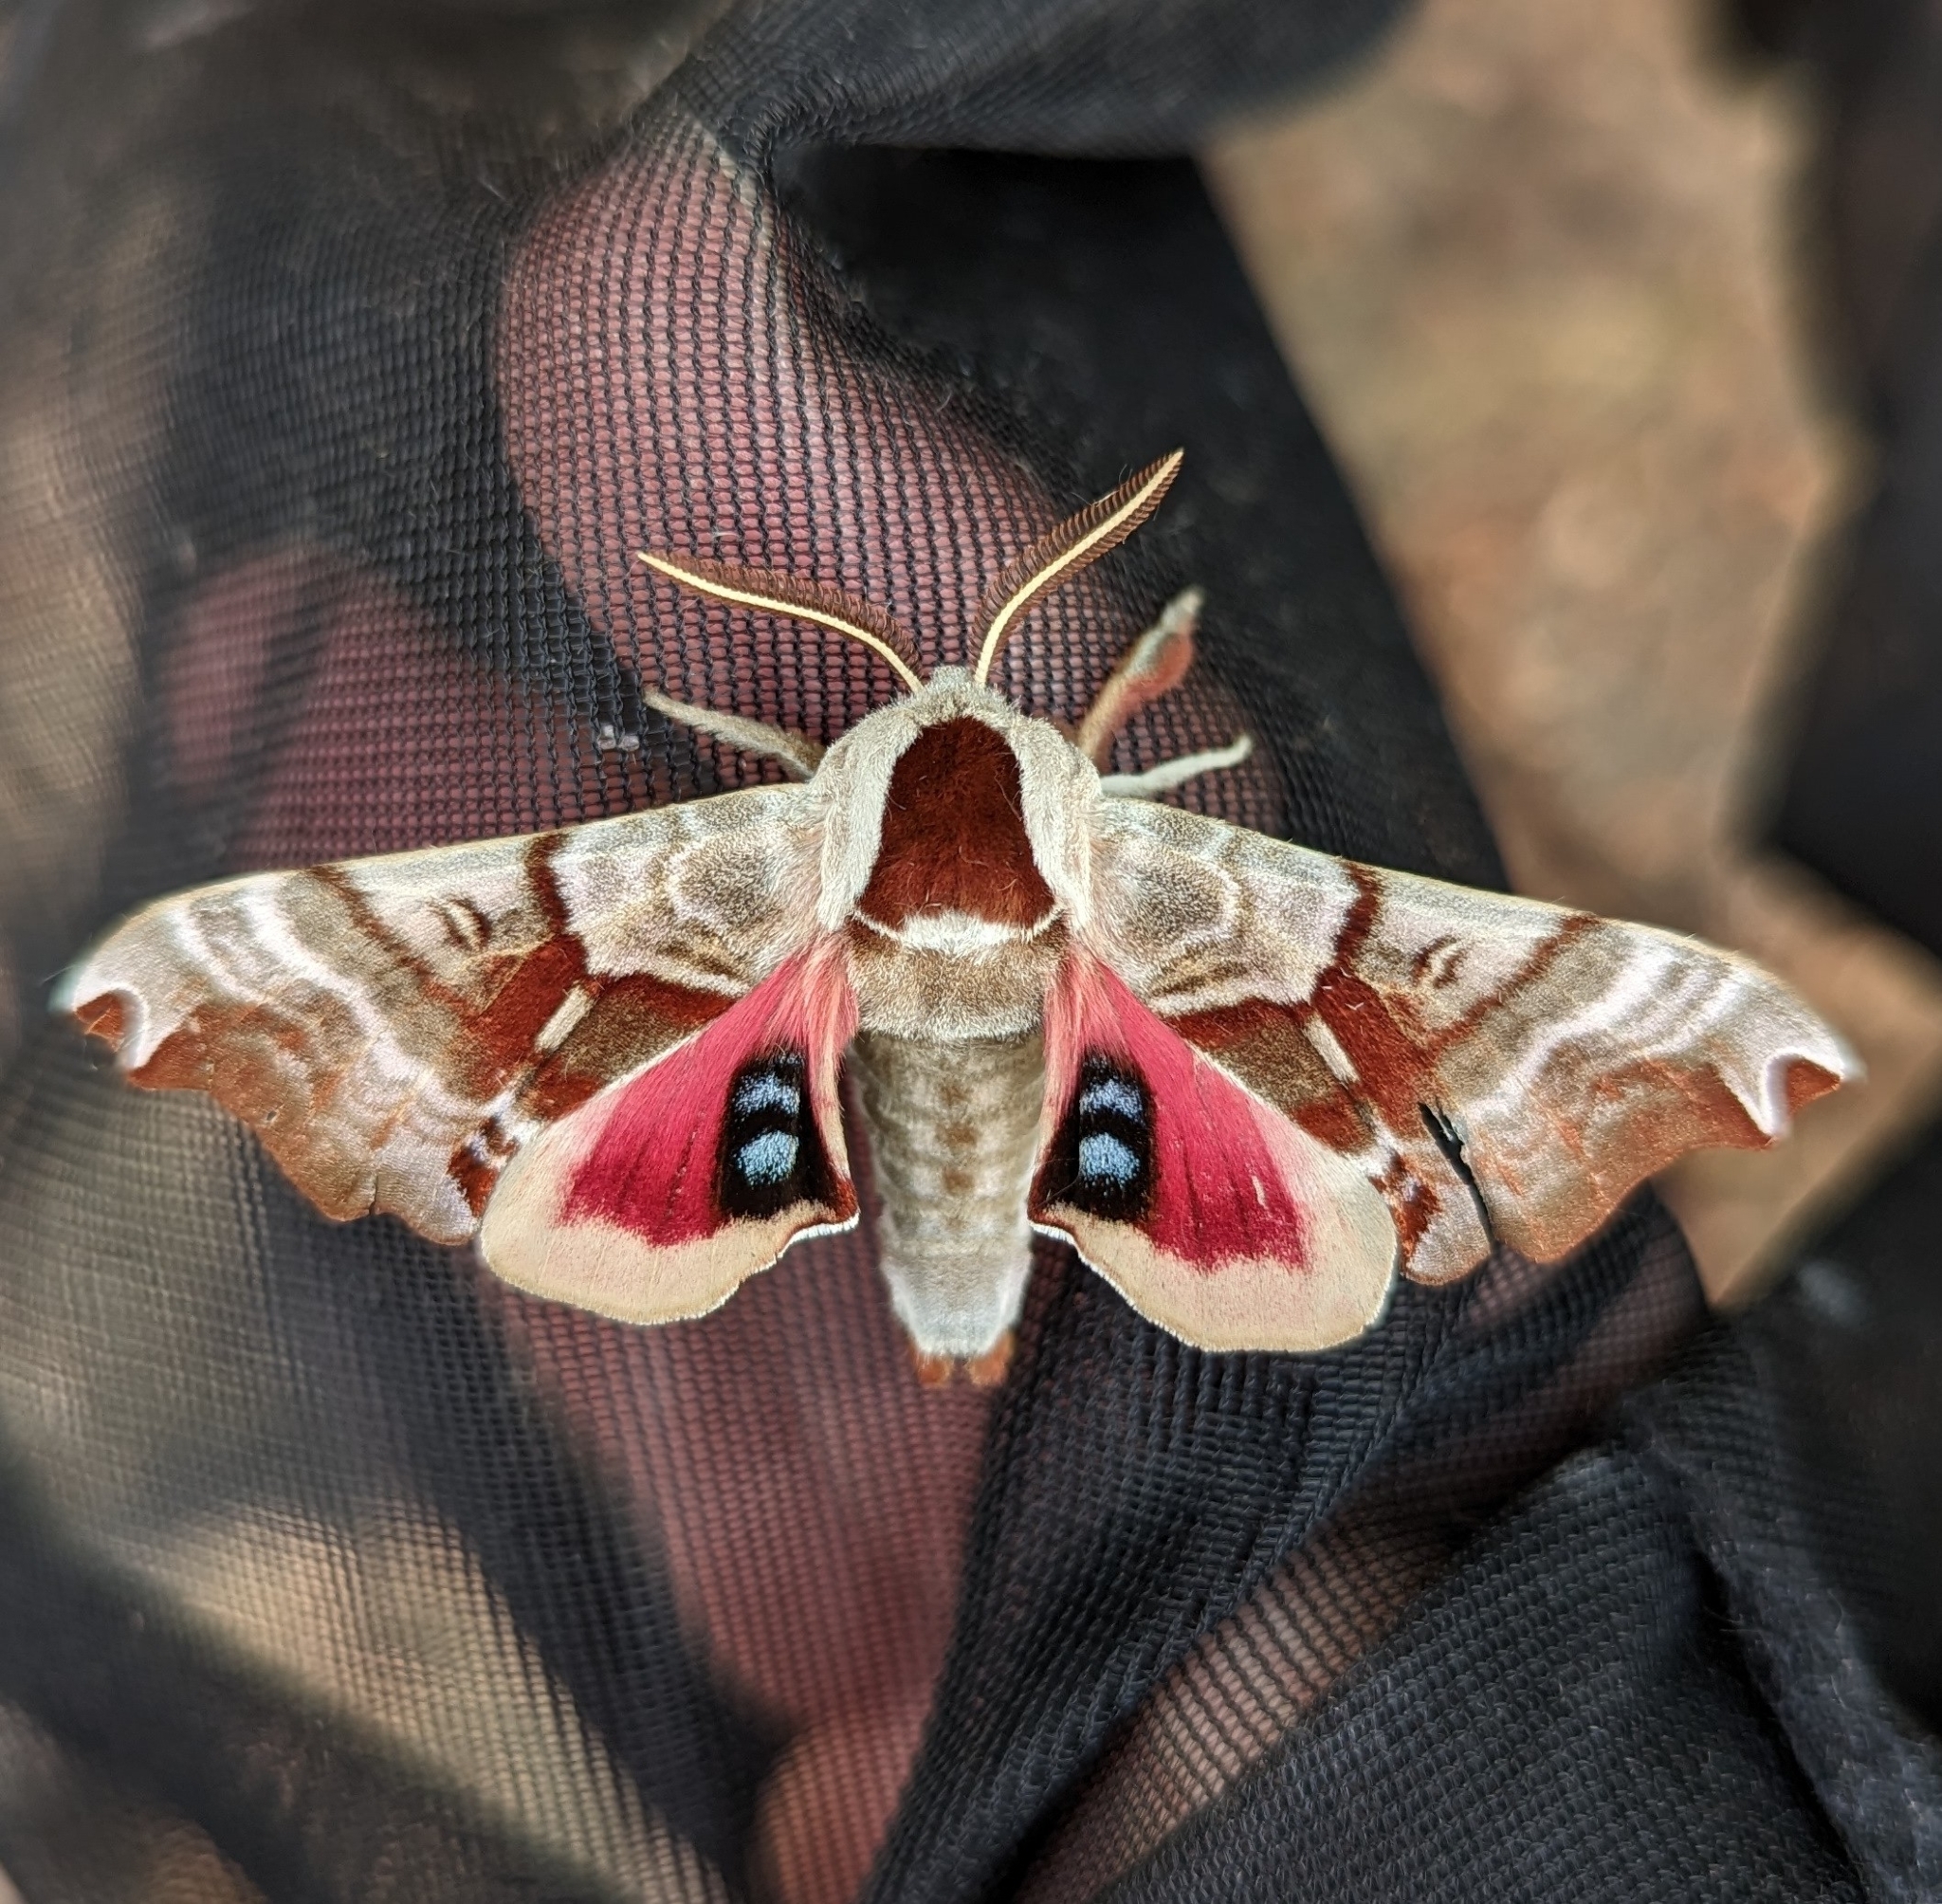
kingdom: Animalia
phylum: Arthropoda
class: Insecta
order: Lepidoptera
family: Sphingidae
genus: Smerinthus
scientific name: Smerinthus jamaicensis
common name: Twin spotted sphinx
